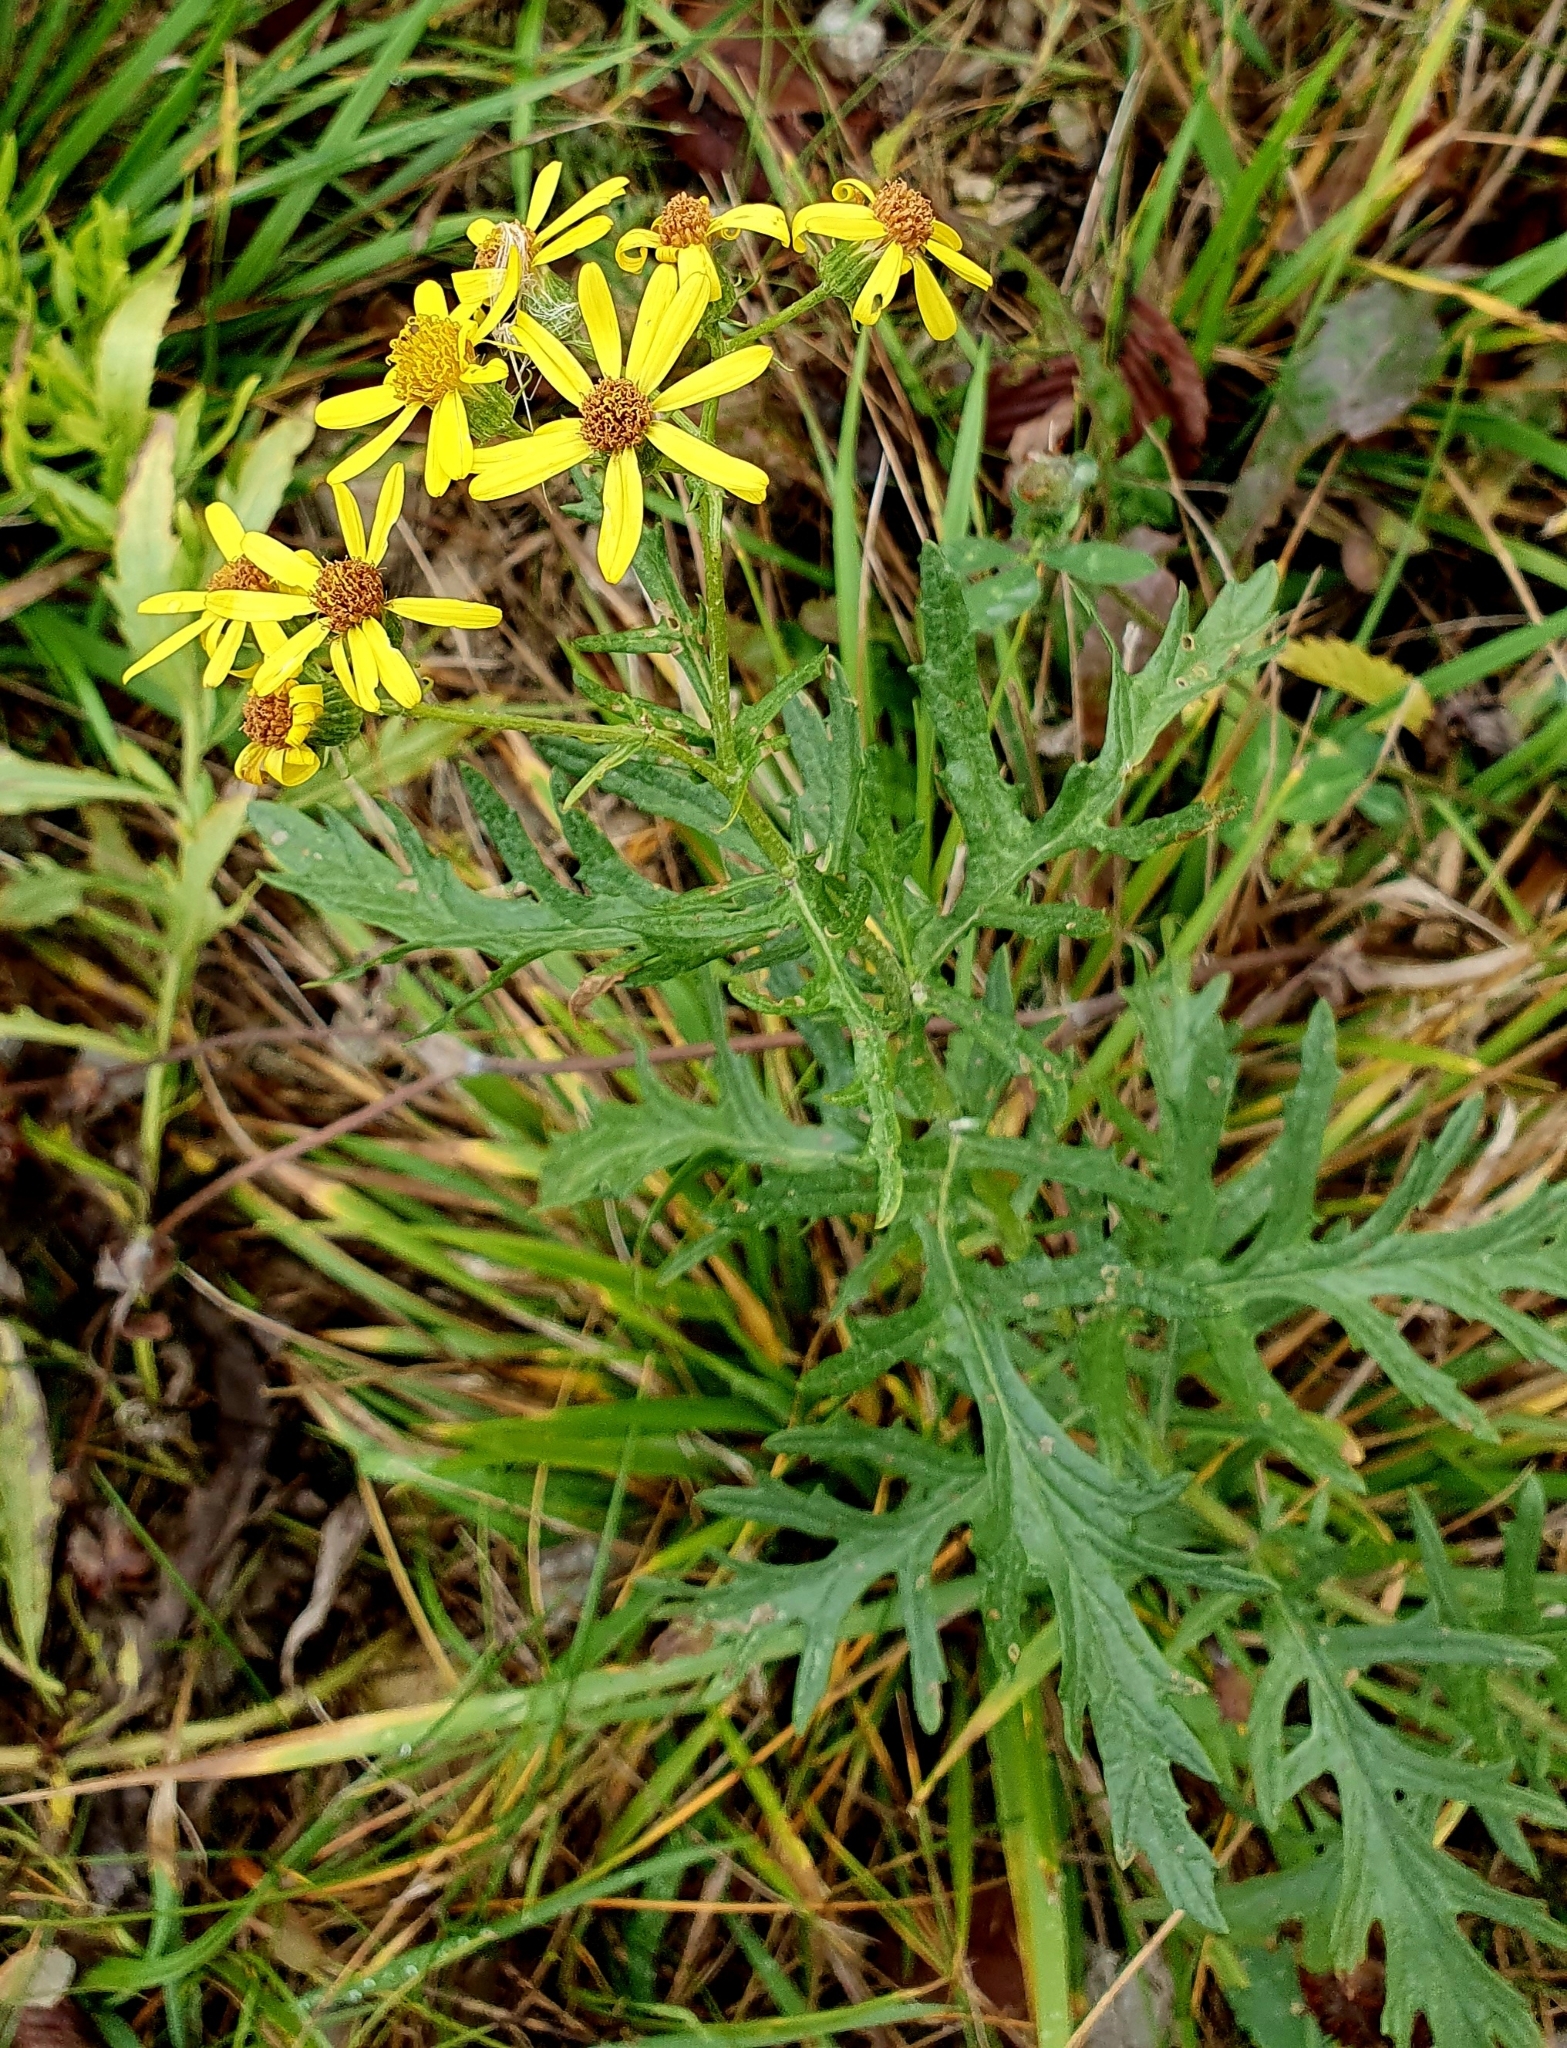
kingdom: Plantae
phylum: Tracheophyta
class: Magnoliopsida
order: Asterales
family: Asteraceae
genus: Jacobaea
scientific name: Jacobaea erucifolia
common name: Hoary ragwort
